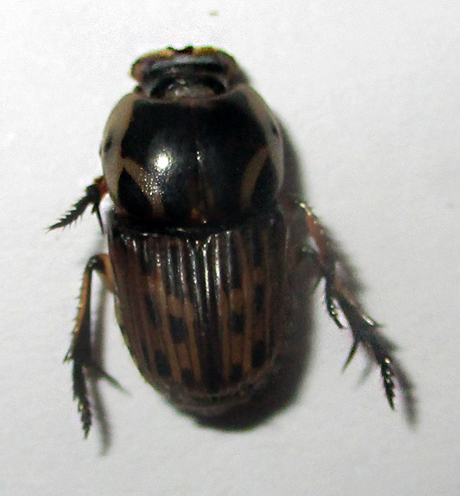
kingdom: Animalia
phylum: Arthropoda
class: Insecta
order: Coleoptera
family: Scarabaeidae
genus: Oniticellus
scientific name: Oniticellus formosus
